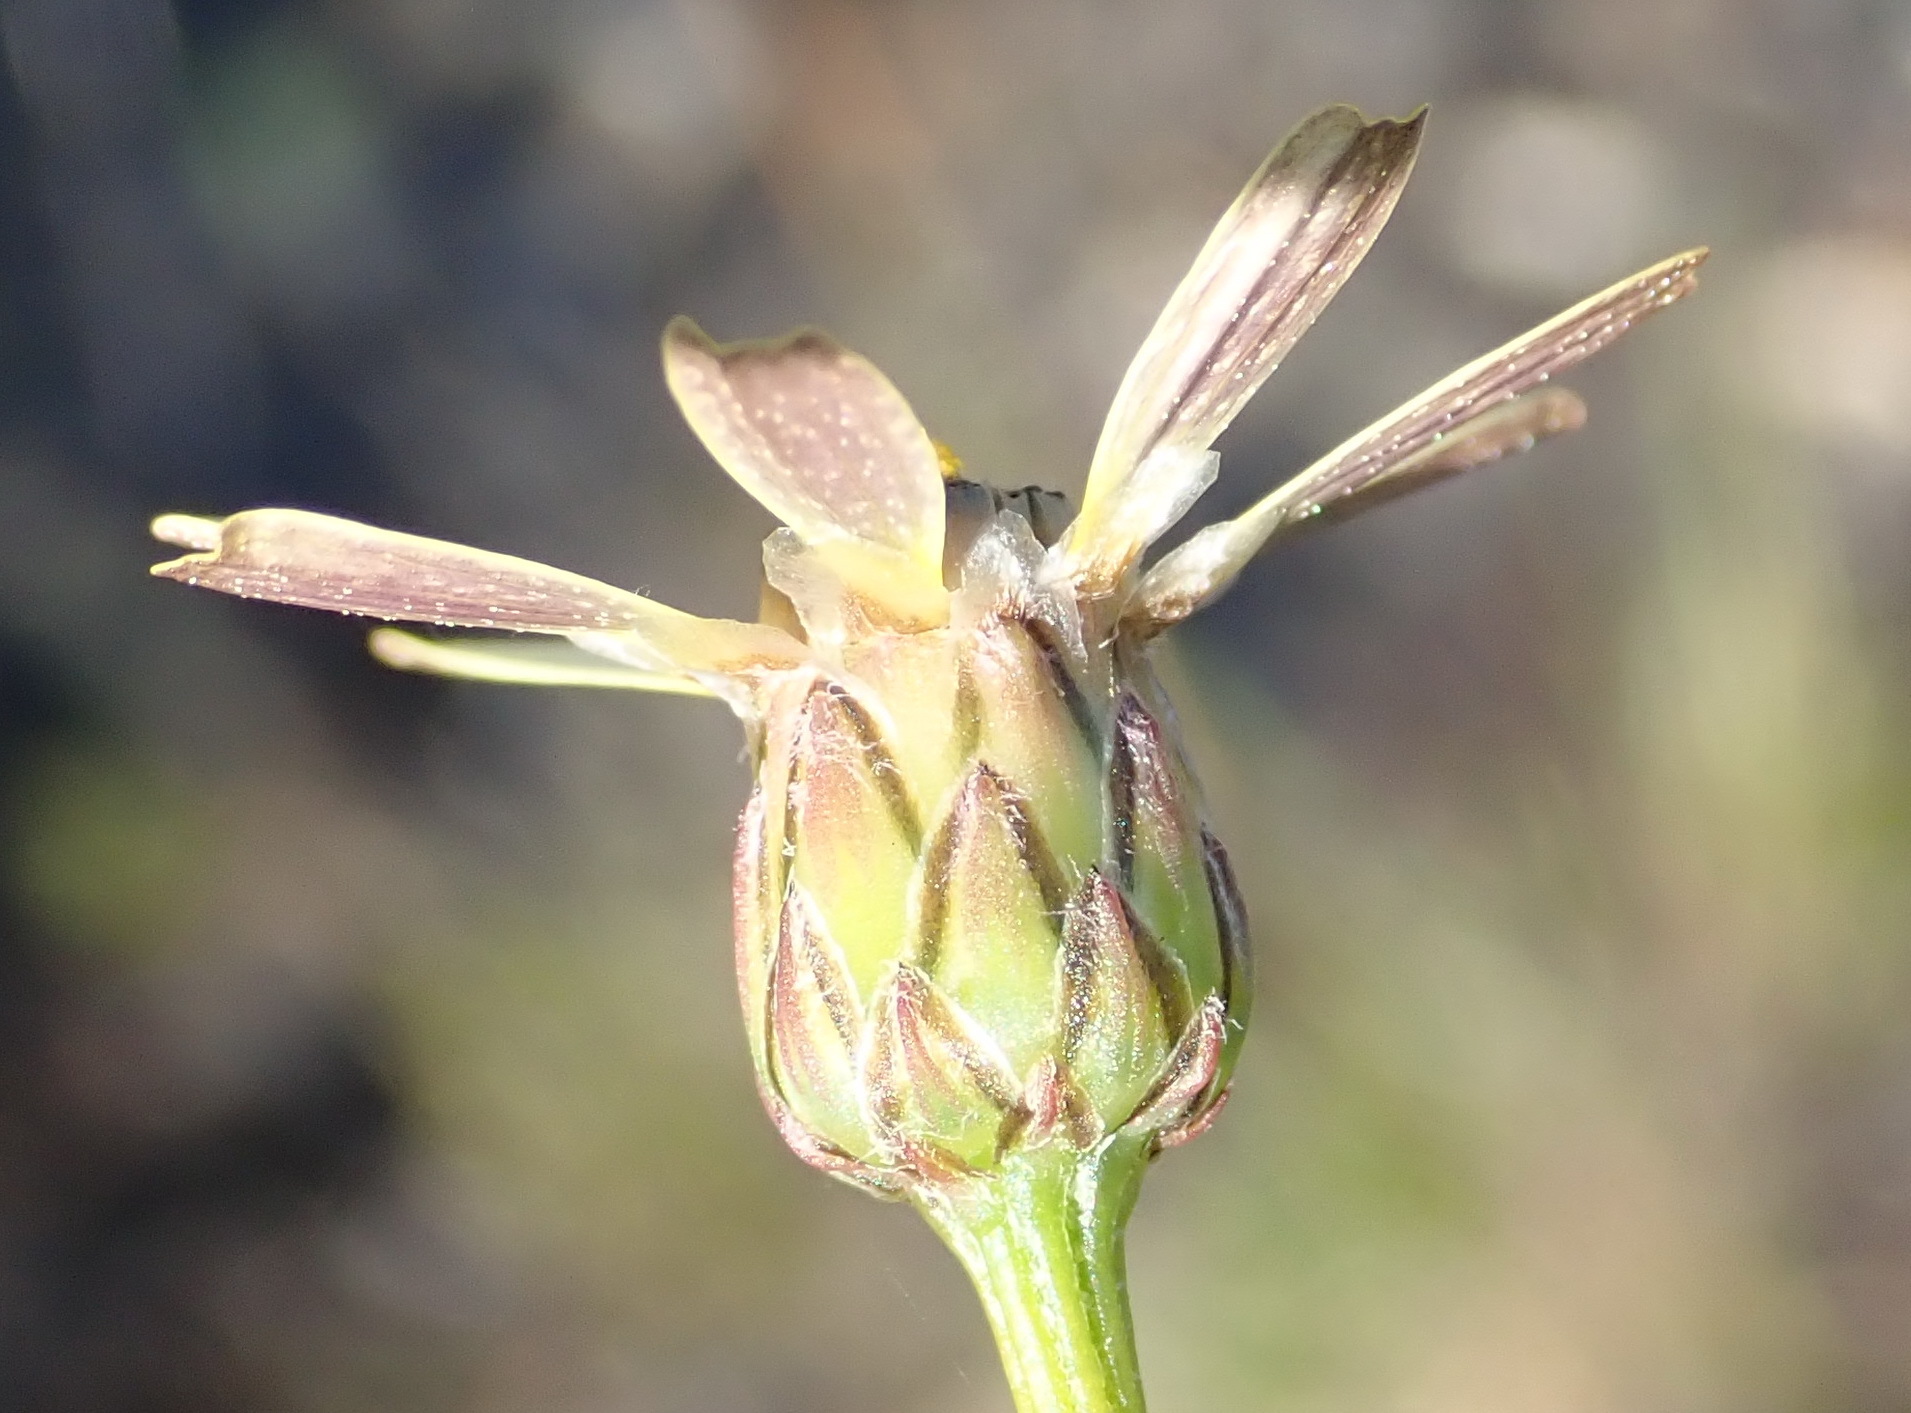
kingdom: Plantae
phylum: Tracheophyta
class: Magnoliopsida
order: Asterales
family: Asteraceae
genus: Ursinia
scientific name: Ursinia anthemoides
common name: Ursinia
